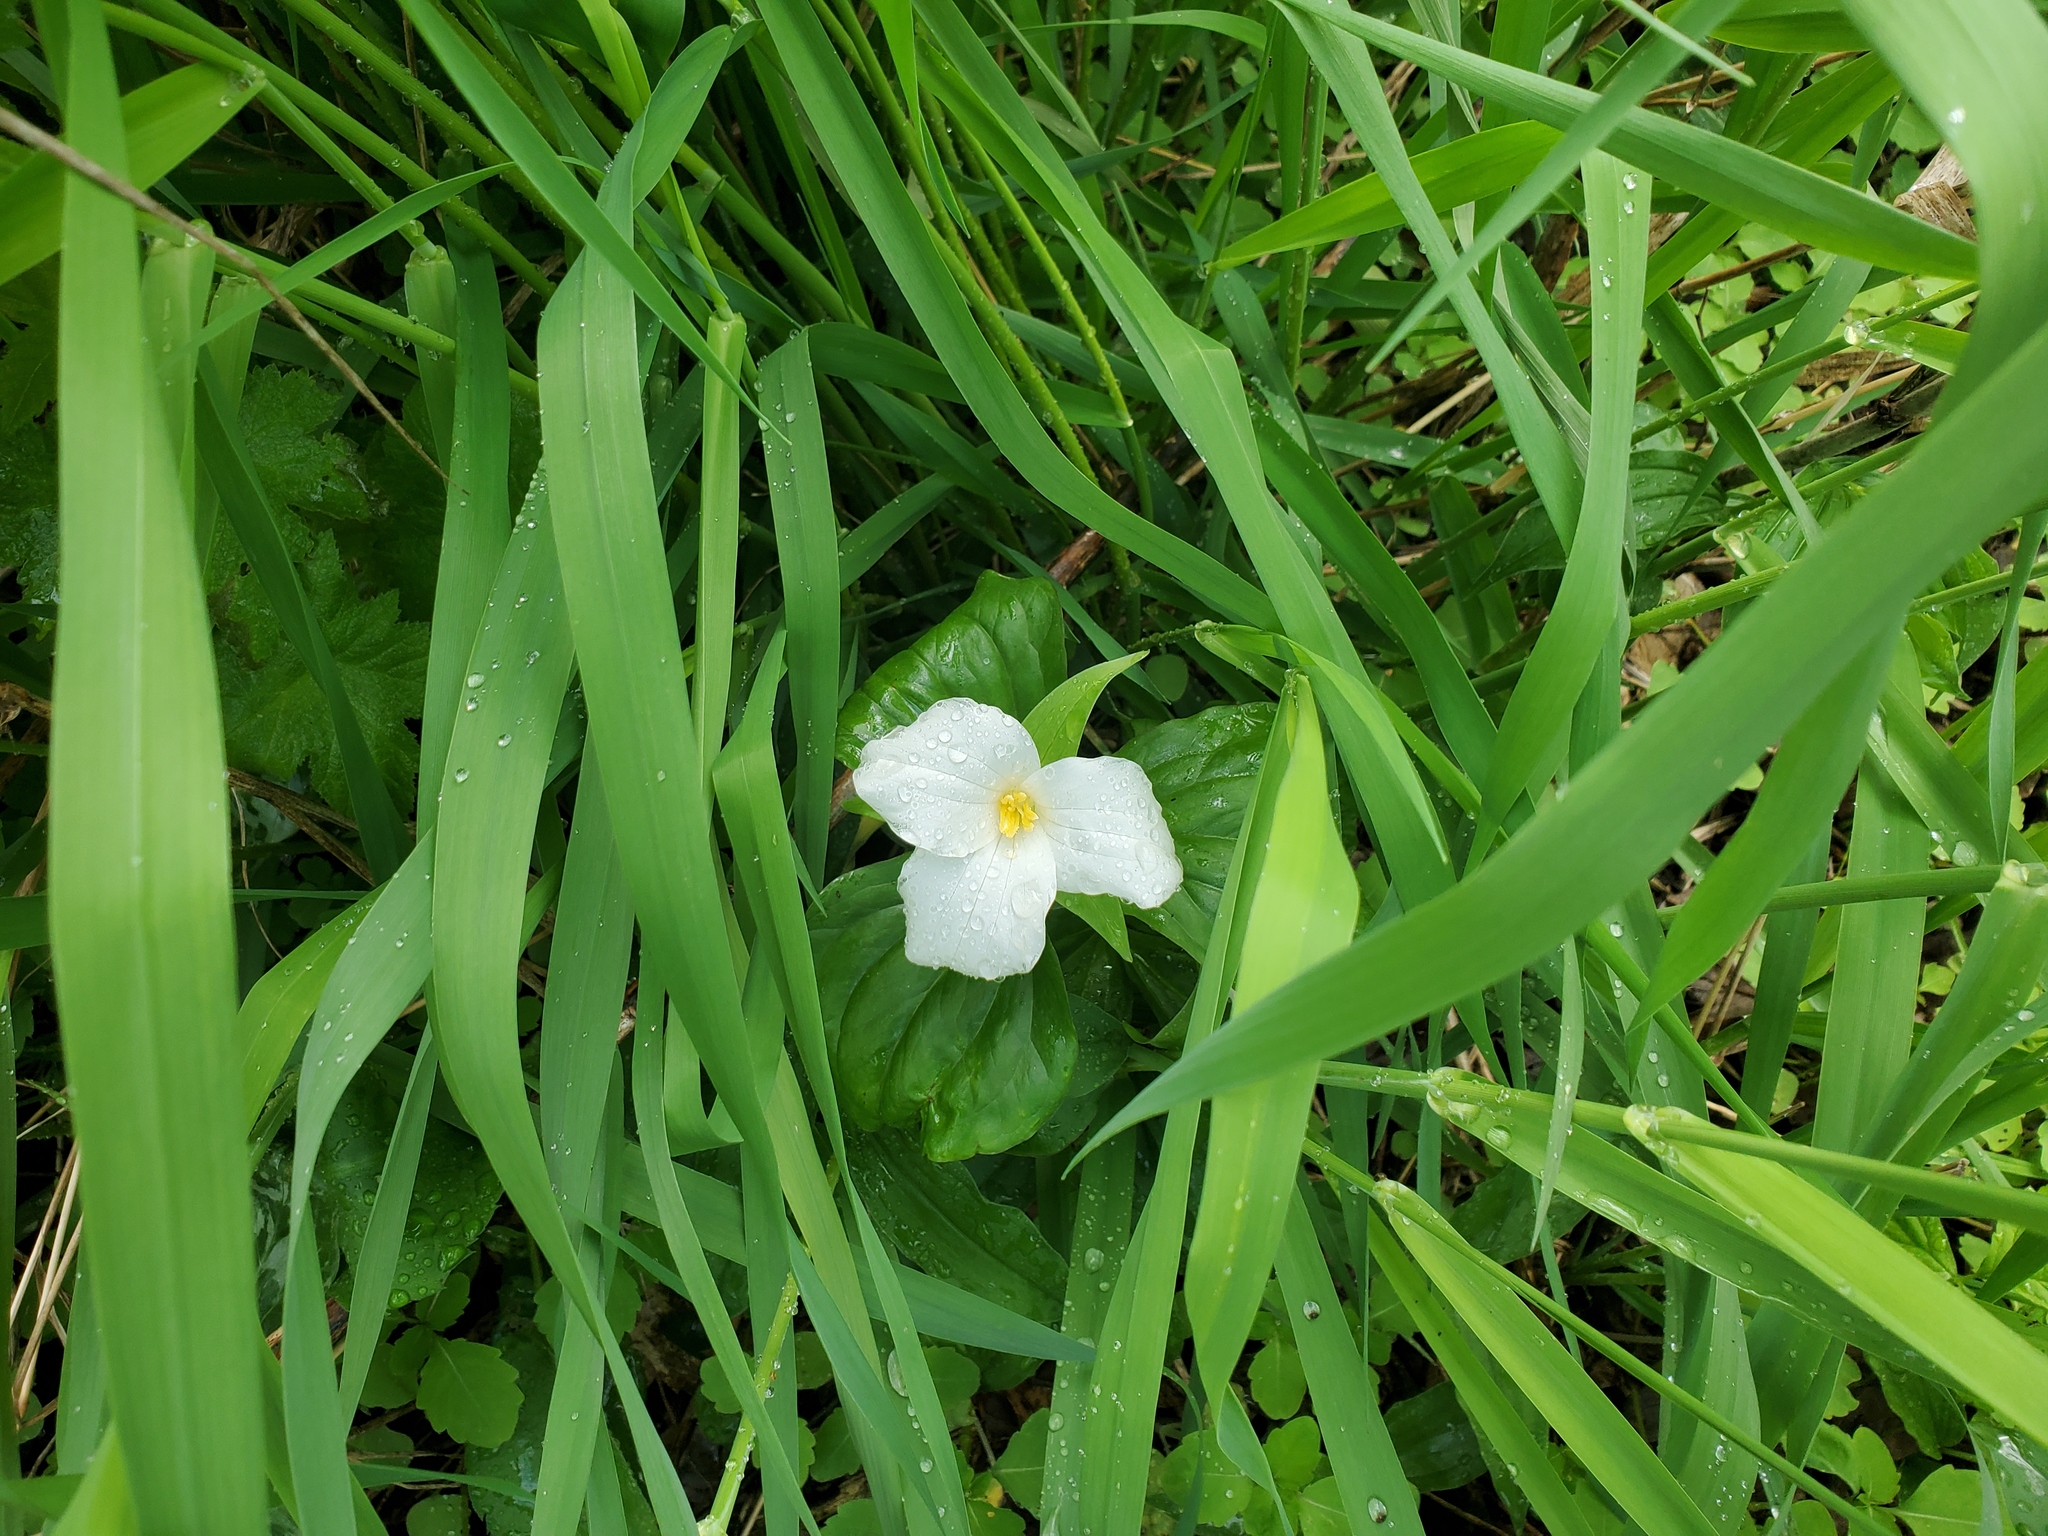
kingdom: Plantae
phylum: Tracheophyta
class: Liliopsida
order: Liliales
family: Melanthiaceae
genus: Trillium
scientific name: Trillium grandiflorum
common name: Great white trillium
